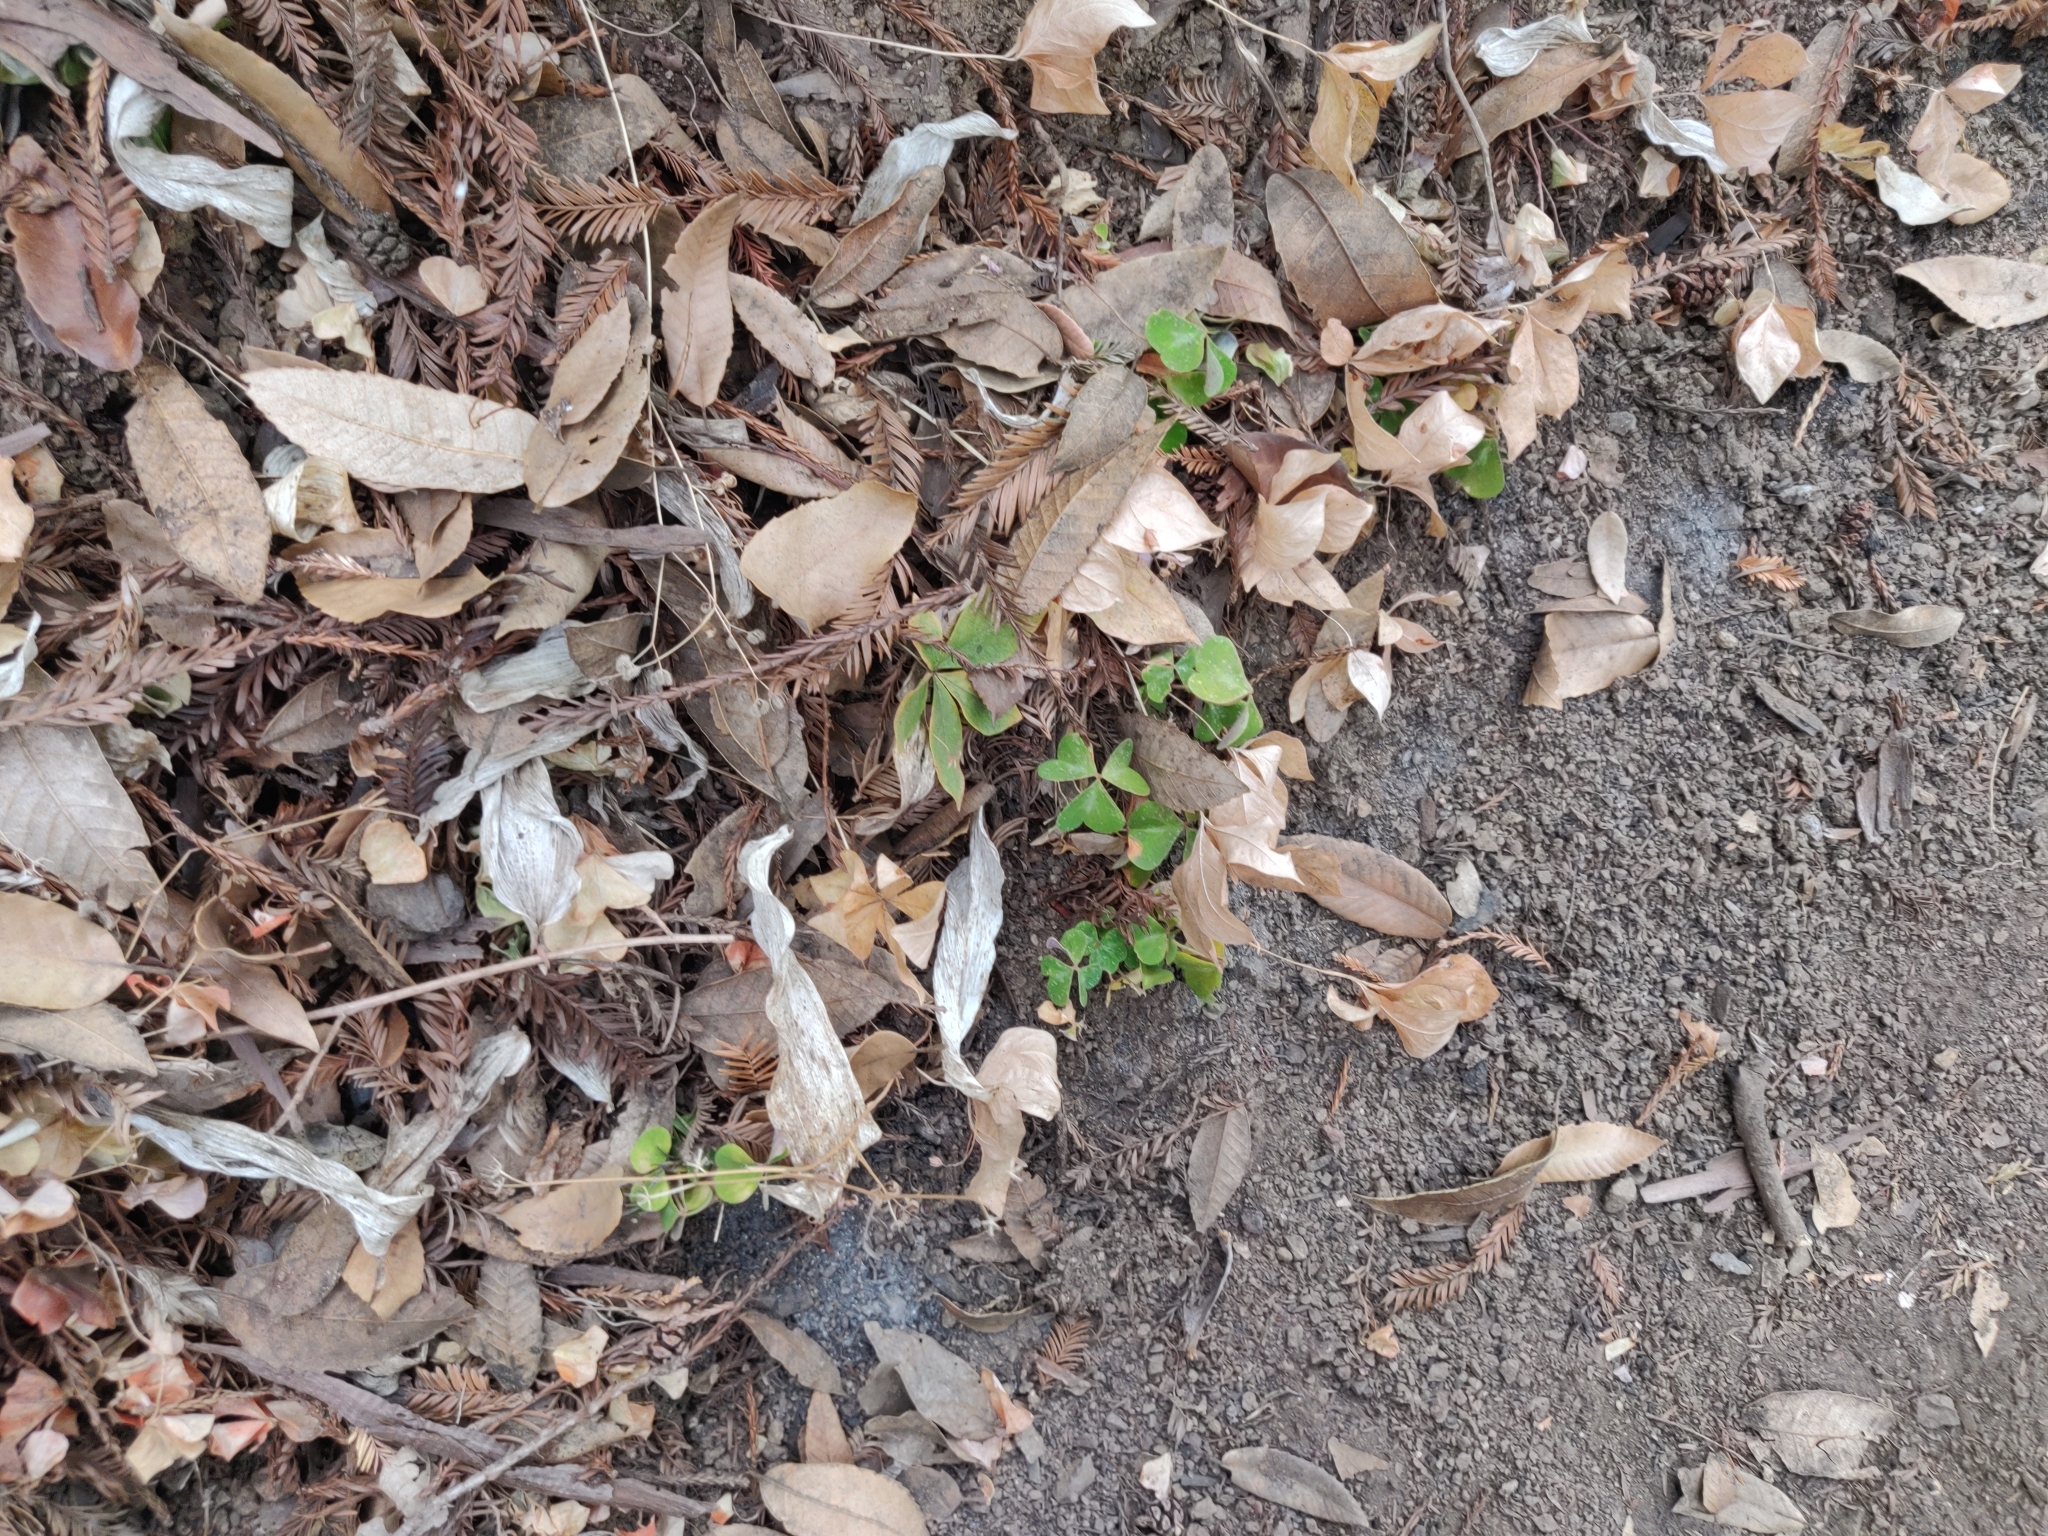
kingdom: Plantae
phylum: Tracheophyta
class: Magnoliopsida
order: Oxalidales
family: Oxalidaceae
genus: Oxalis
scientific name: Oxalis oregana
